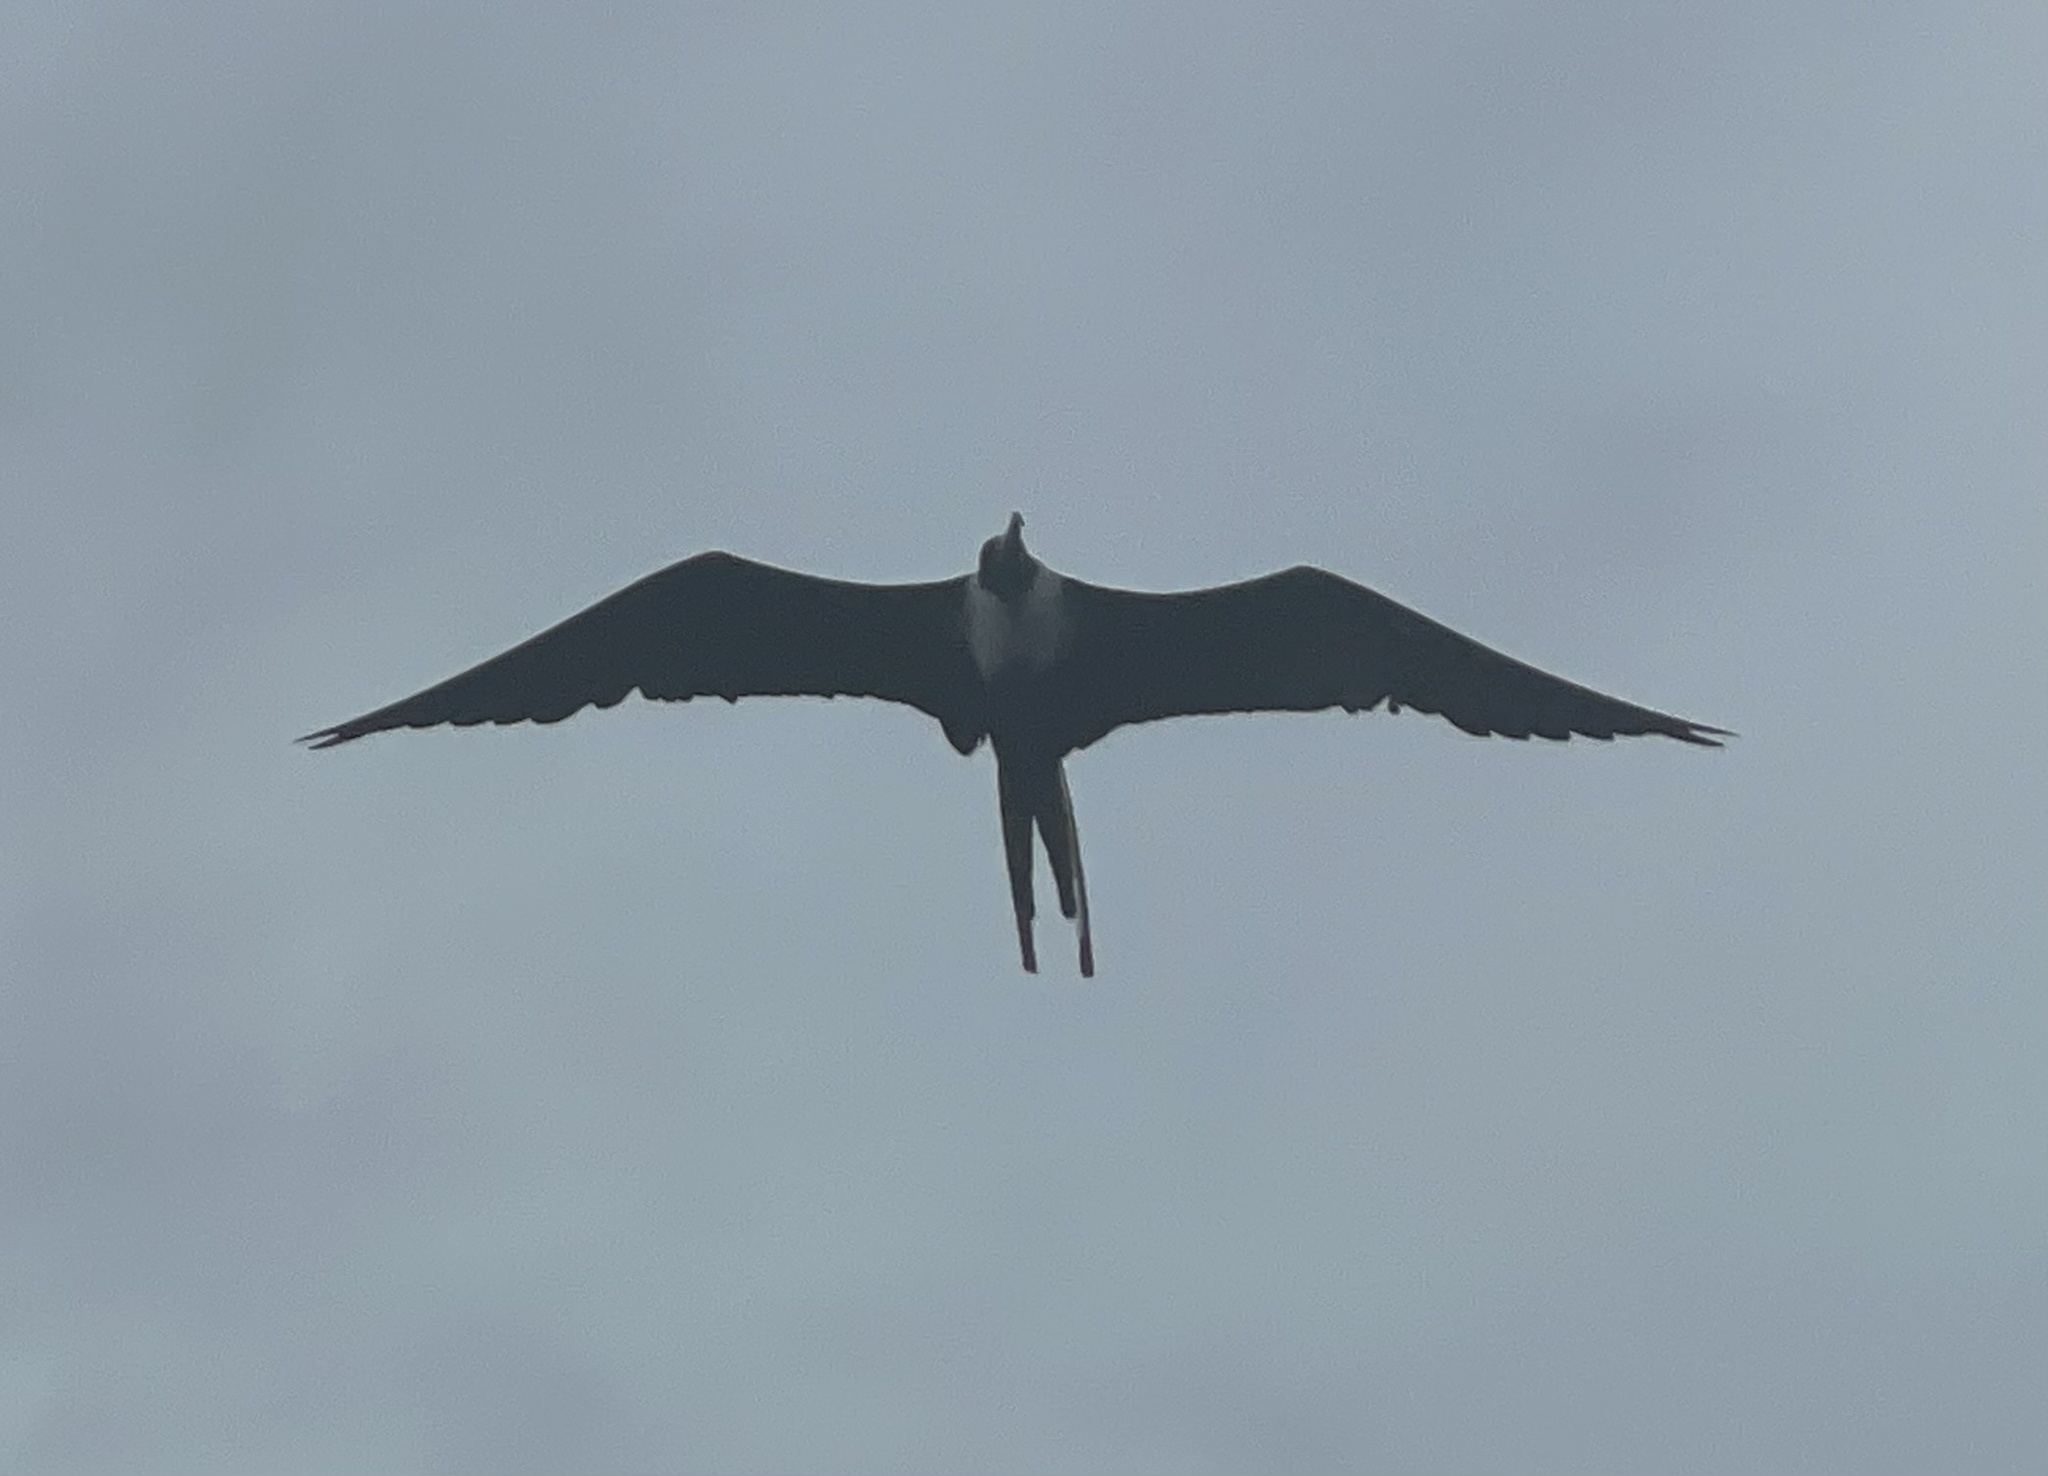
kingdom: Animalia
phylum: Chordata
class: Aves
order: Suliformes
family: Fregatidae
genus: Fregata
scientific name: Fregata magnificens
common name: Magnificent frigatebird
